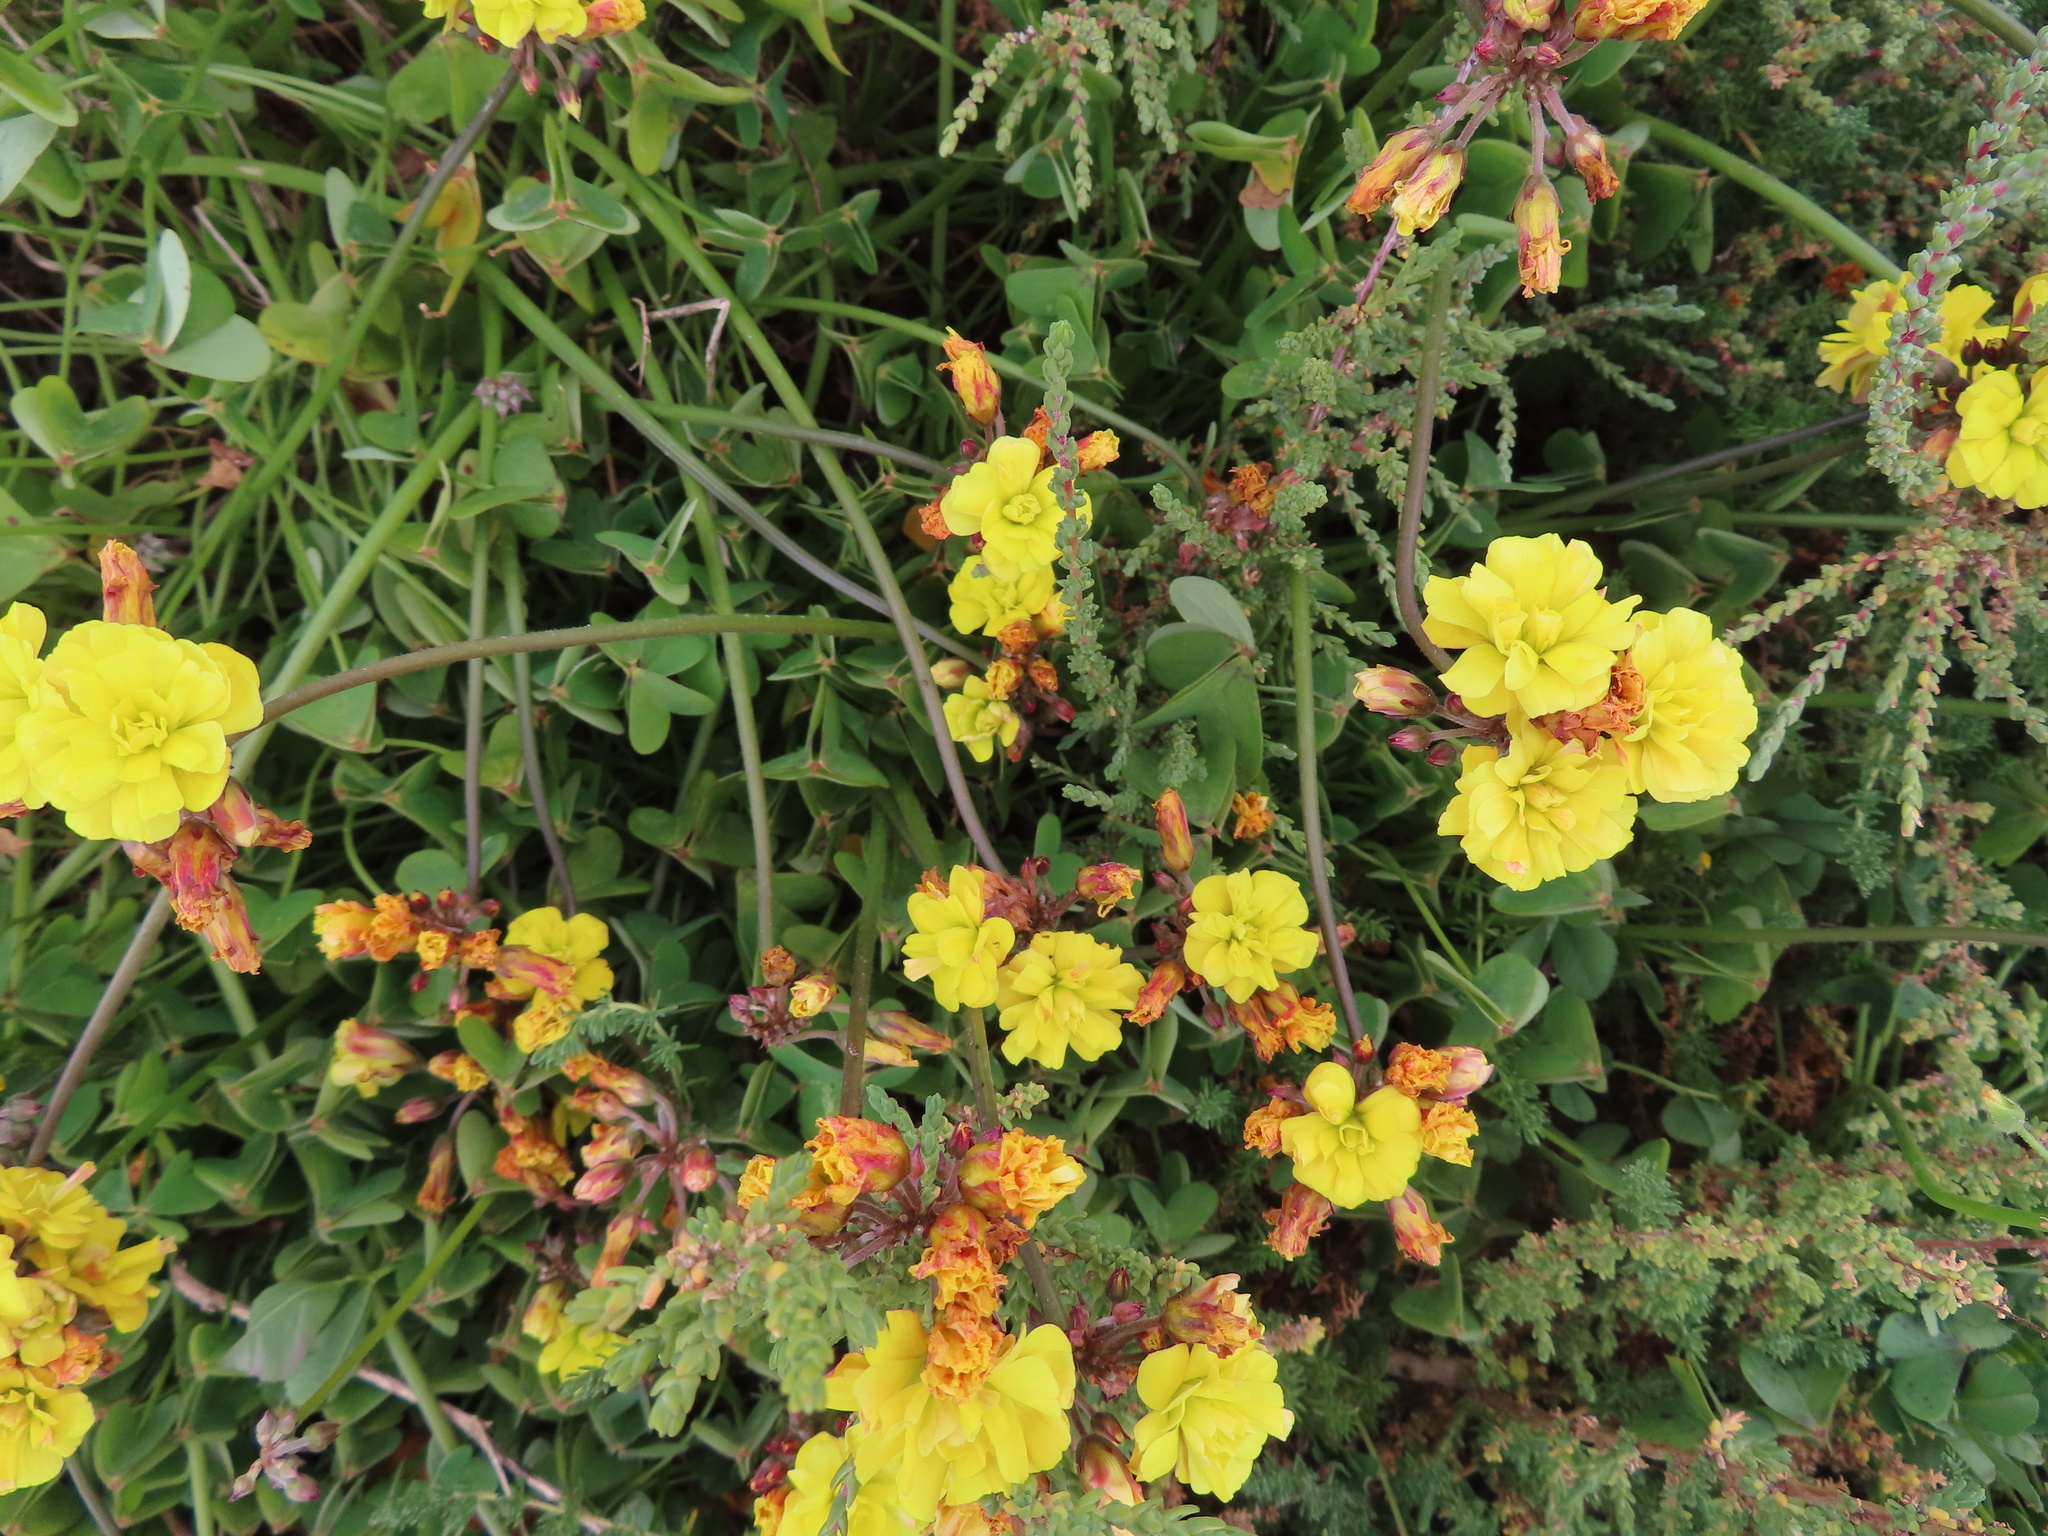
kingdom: Plantae
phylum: Tracheophyta
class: Magnoliopsida
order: Oxalidales
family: Oxalidaceae
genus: Oxalis
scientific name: Oxalis pes-caprae
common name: Bermuda-buttercup
